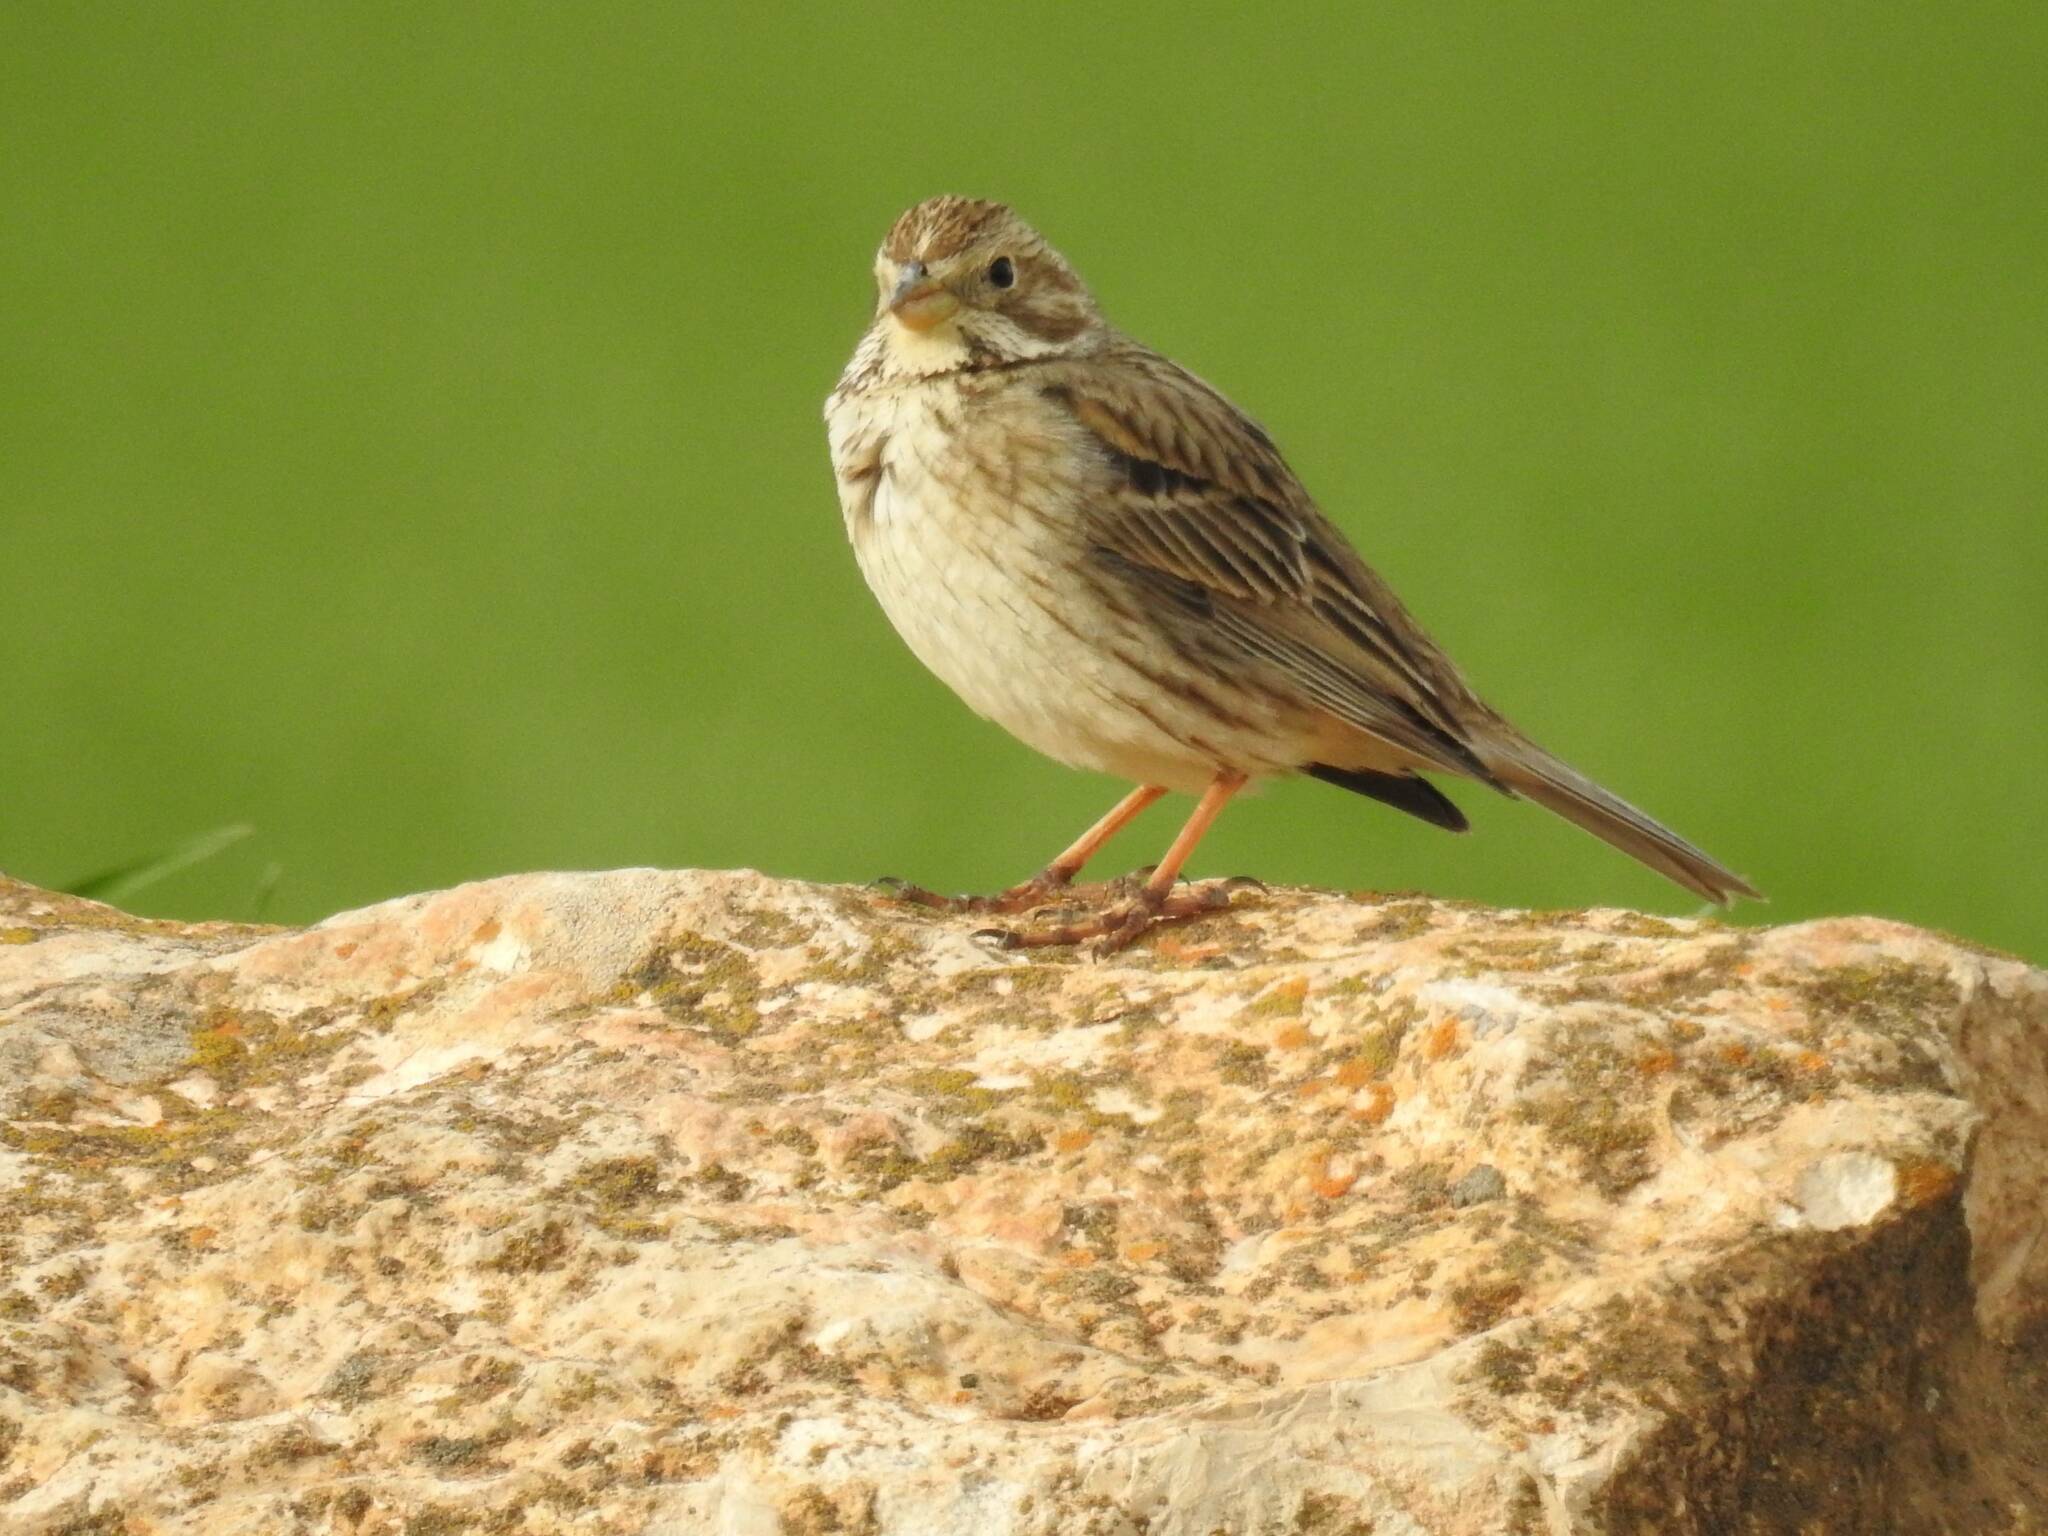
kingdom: Animalia
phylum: Chordata
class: Aves
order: Passeriformes
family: Emberizidae
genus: Emberiza
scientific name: Emberiza calandra
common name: Corn bunting
